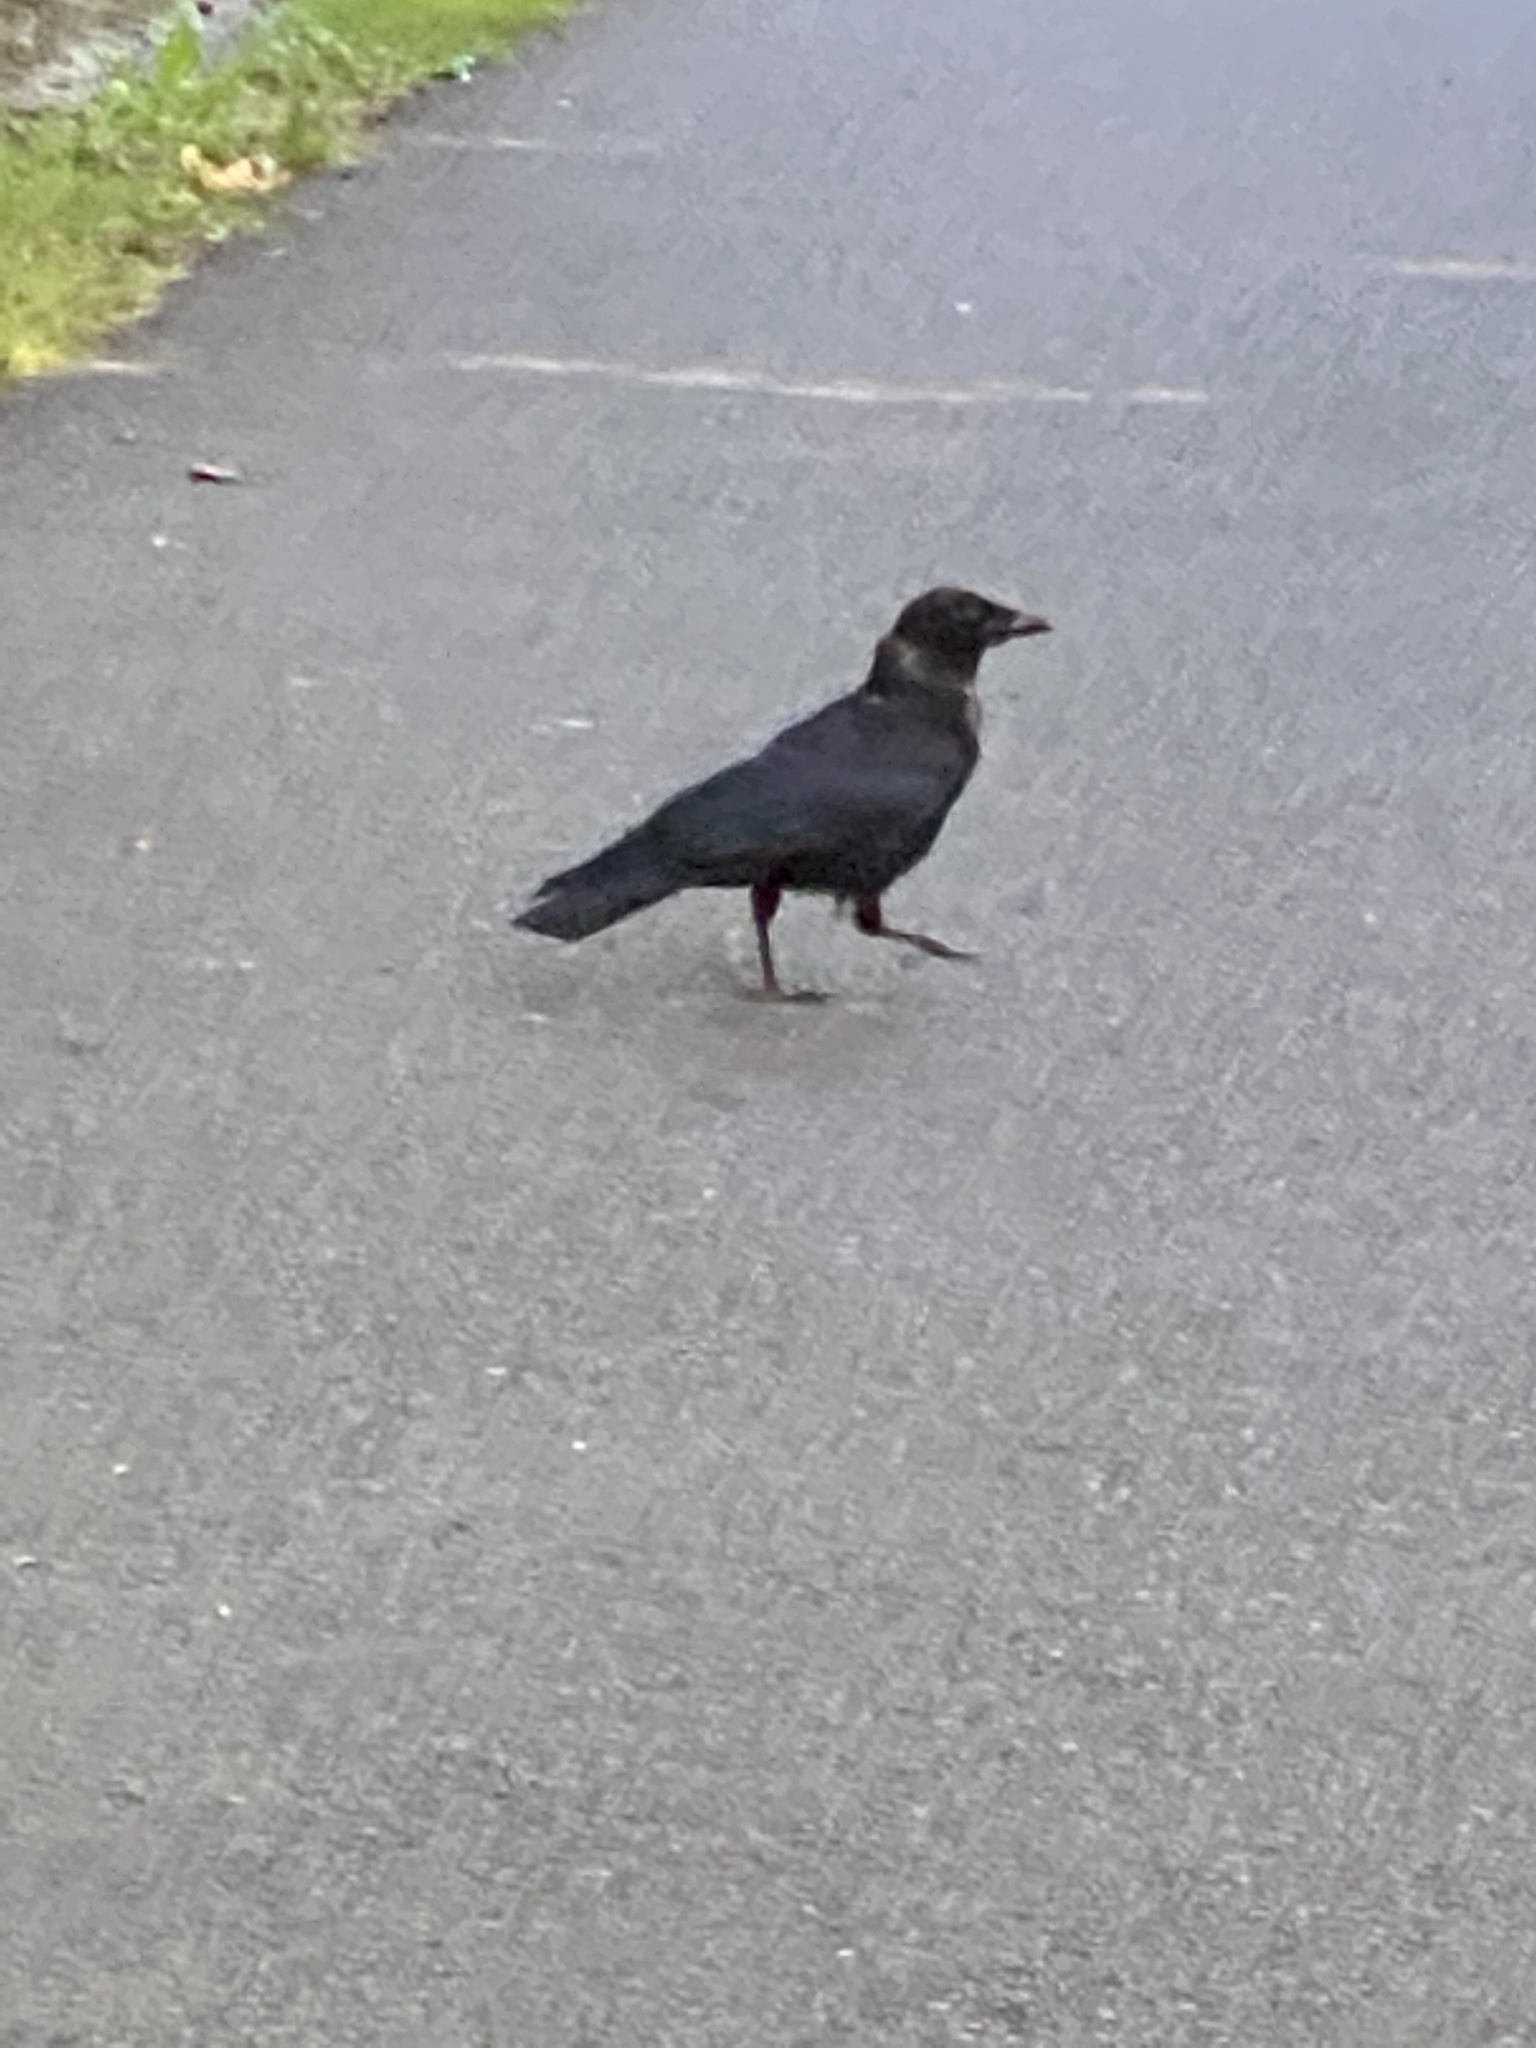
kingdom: Animalia
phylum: Chordata
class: Aves
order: Passeriformes
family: Corvidae
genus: Corvus
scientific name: Corvus brachyrhynchos
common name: American crow
